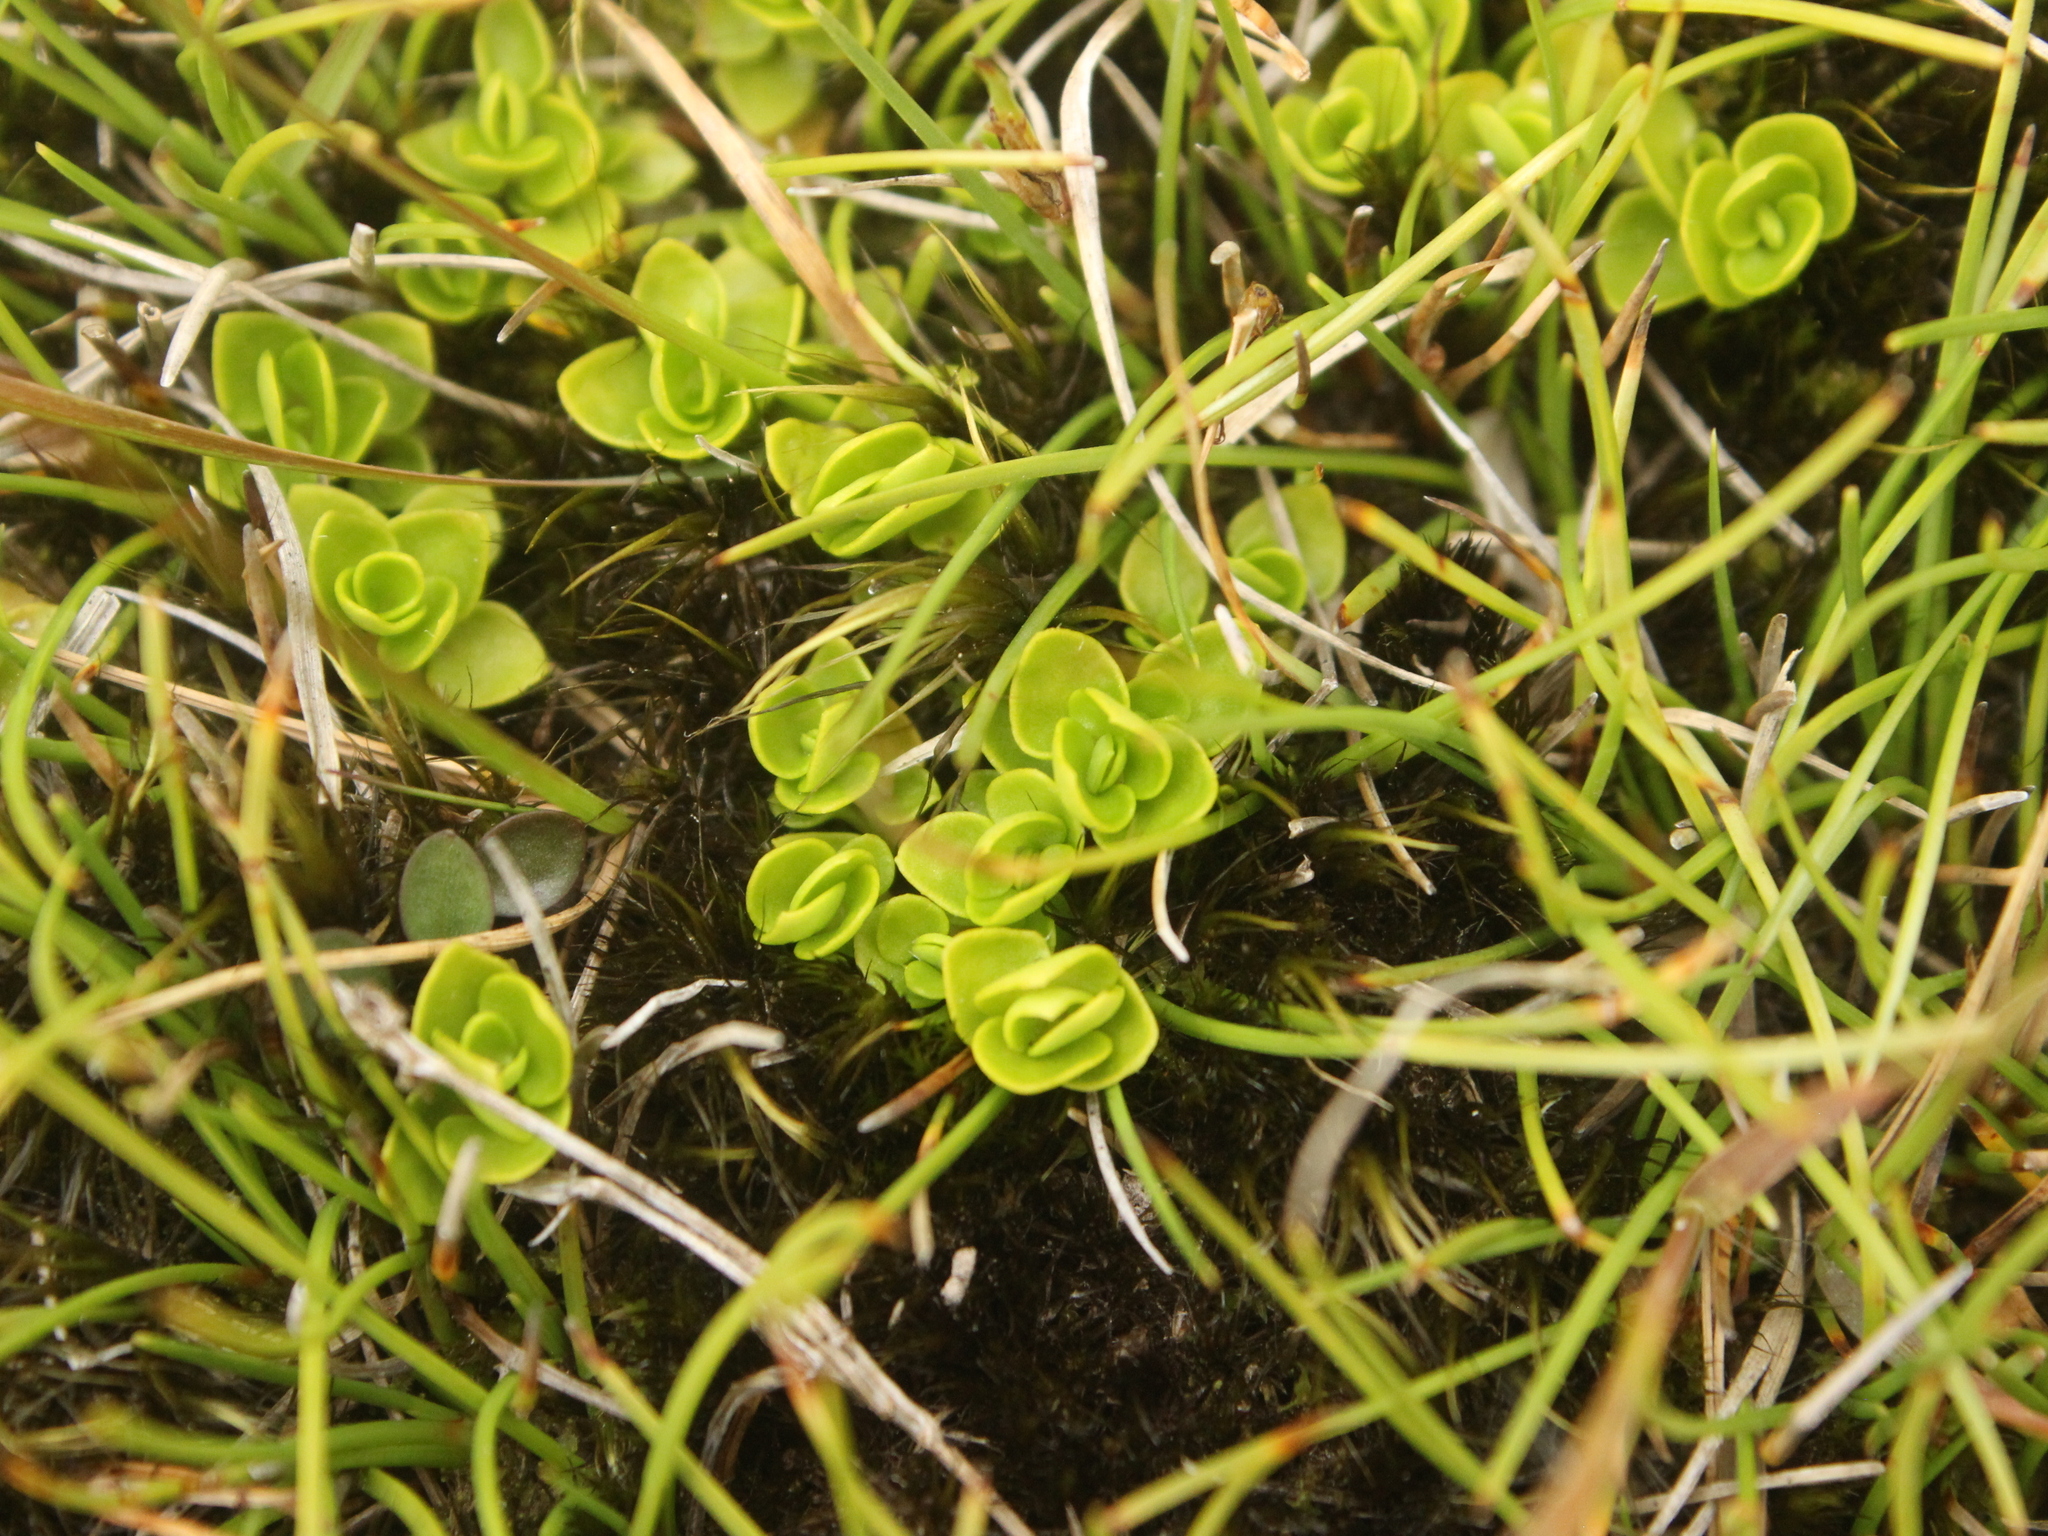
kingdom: Plantae
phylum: Tracheophyta
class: Magnoliopsida
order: Gentianales
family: Rubiaceae
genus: Nertera
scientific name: Nertera ciliata
